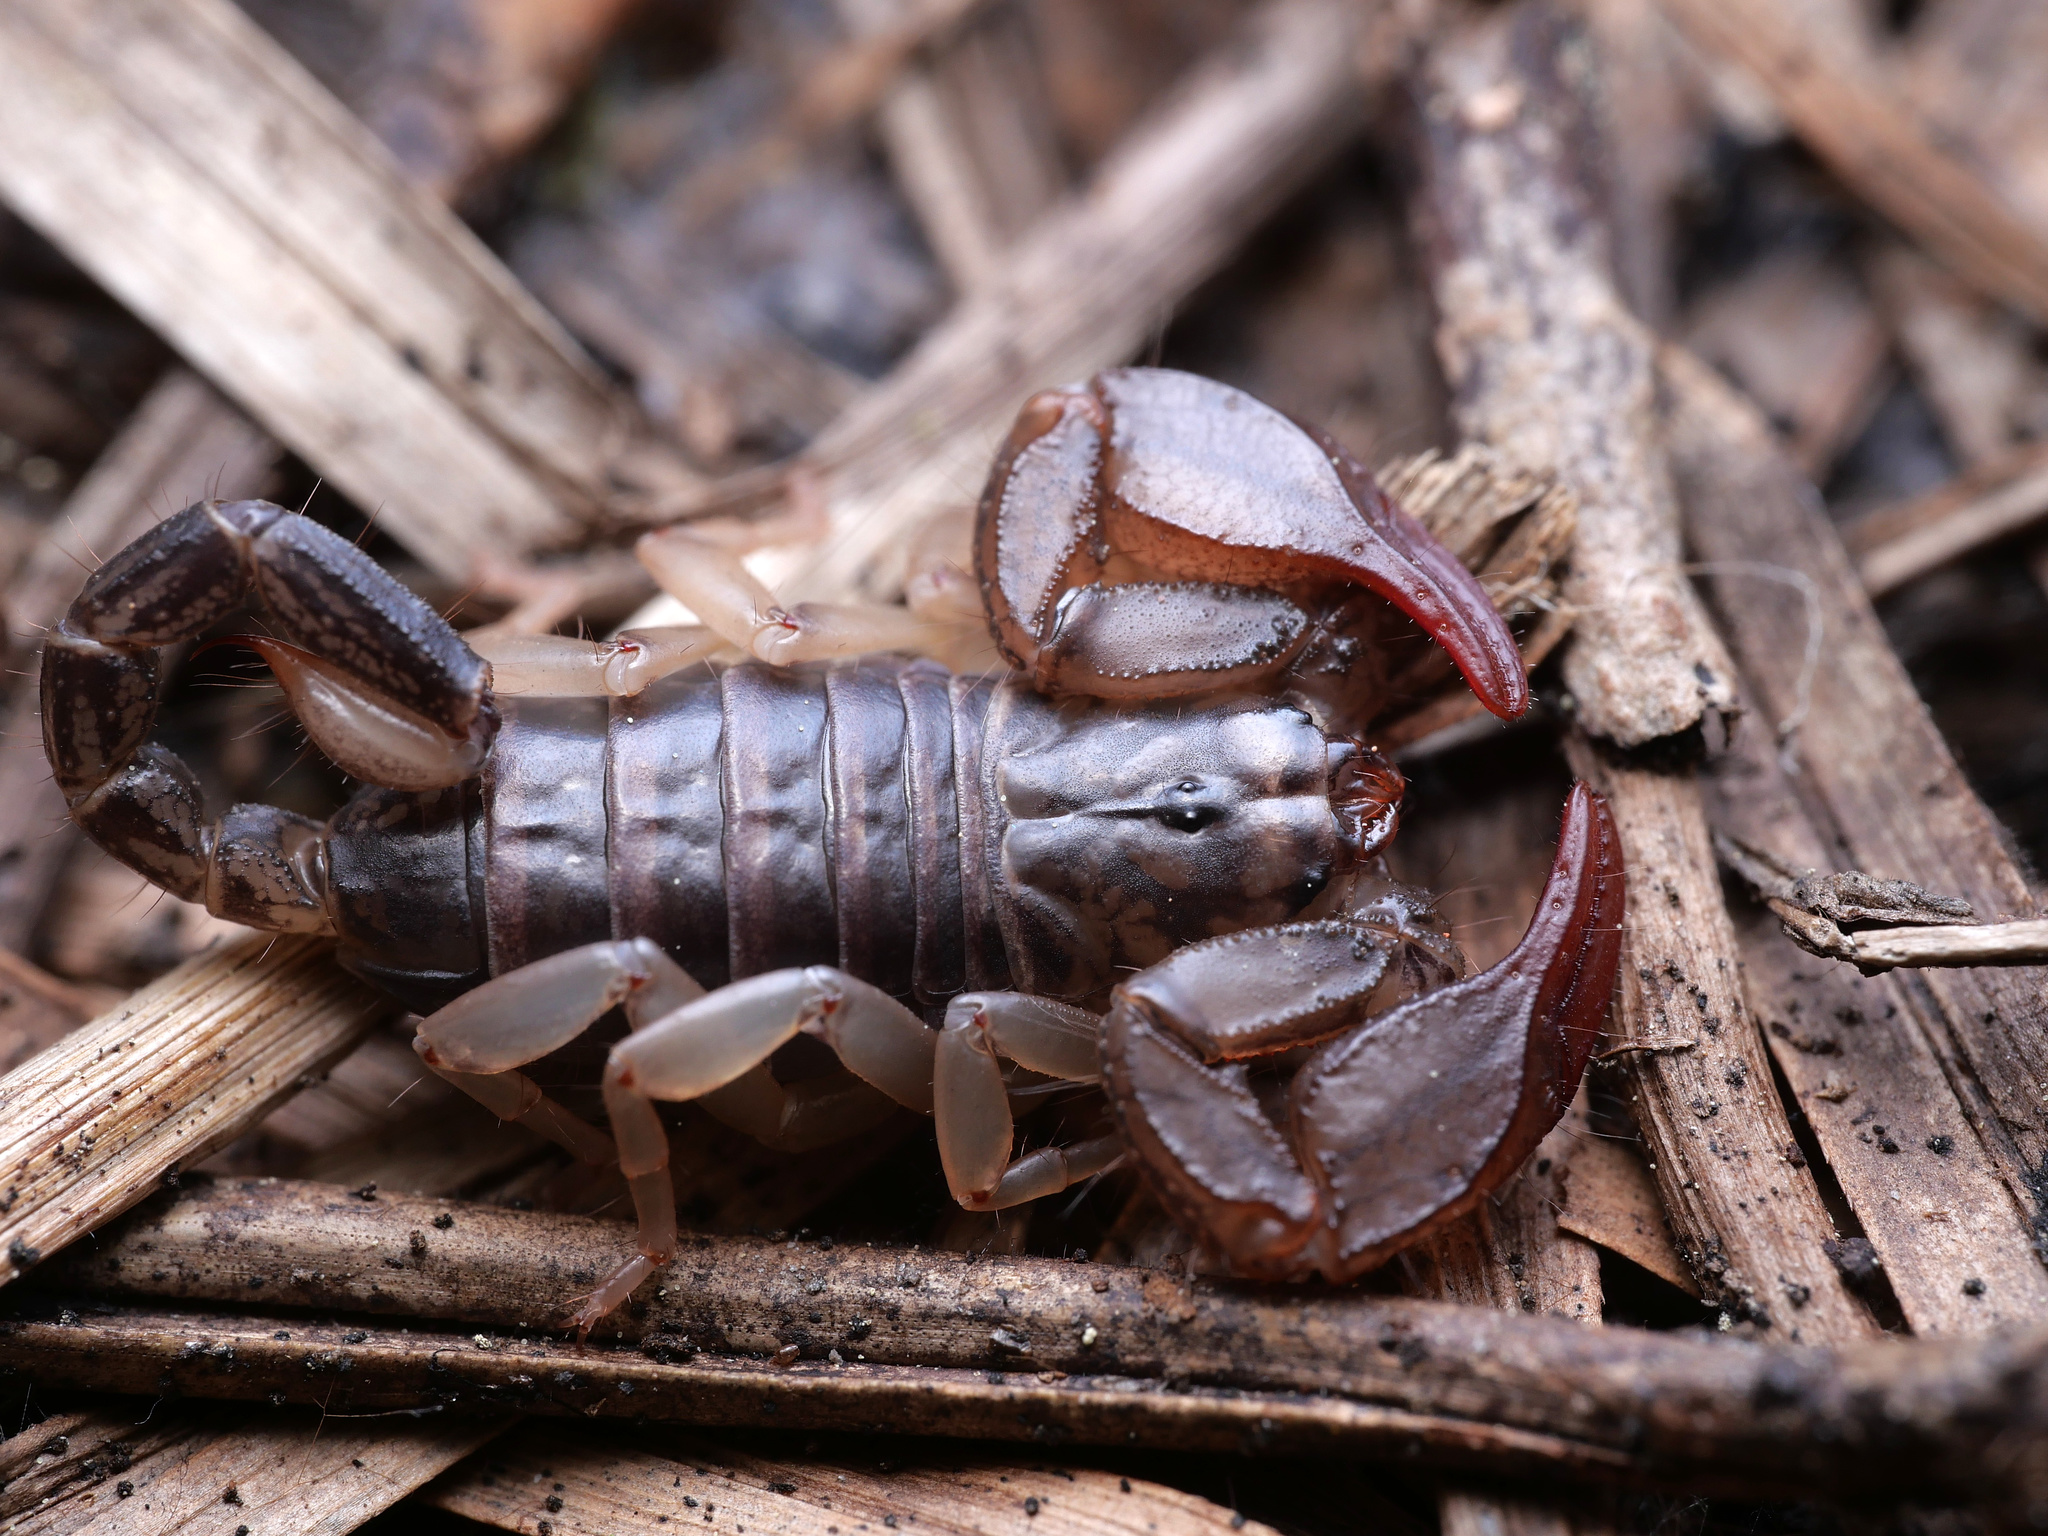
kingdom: Animalia
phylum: Arthropoda
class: Arachnida
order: Scorpiones
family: Euscorpiidae
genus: Euscorpius
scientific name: Euscorpius
